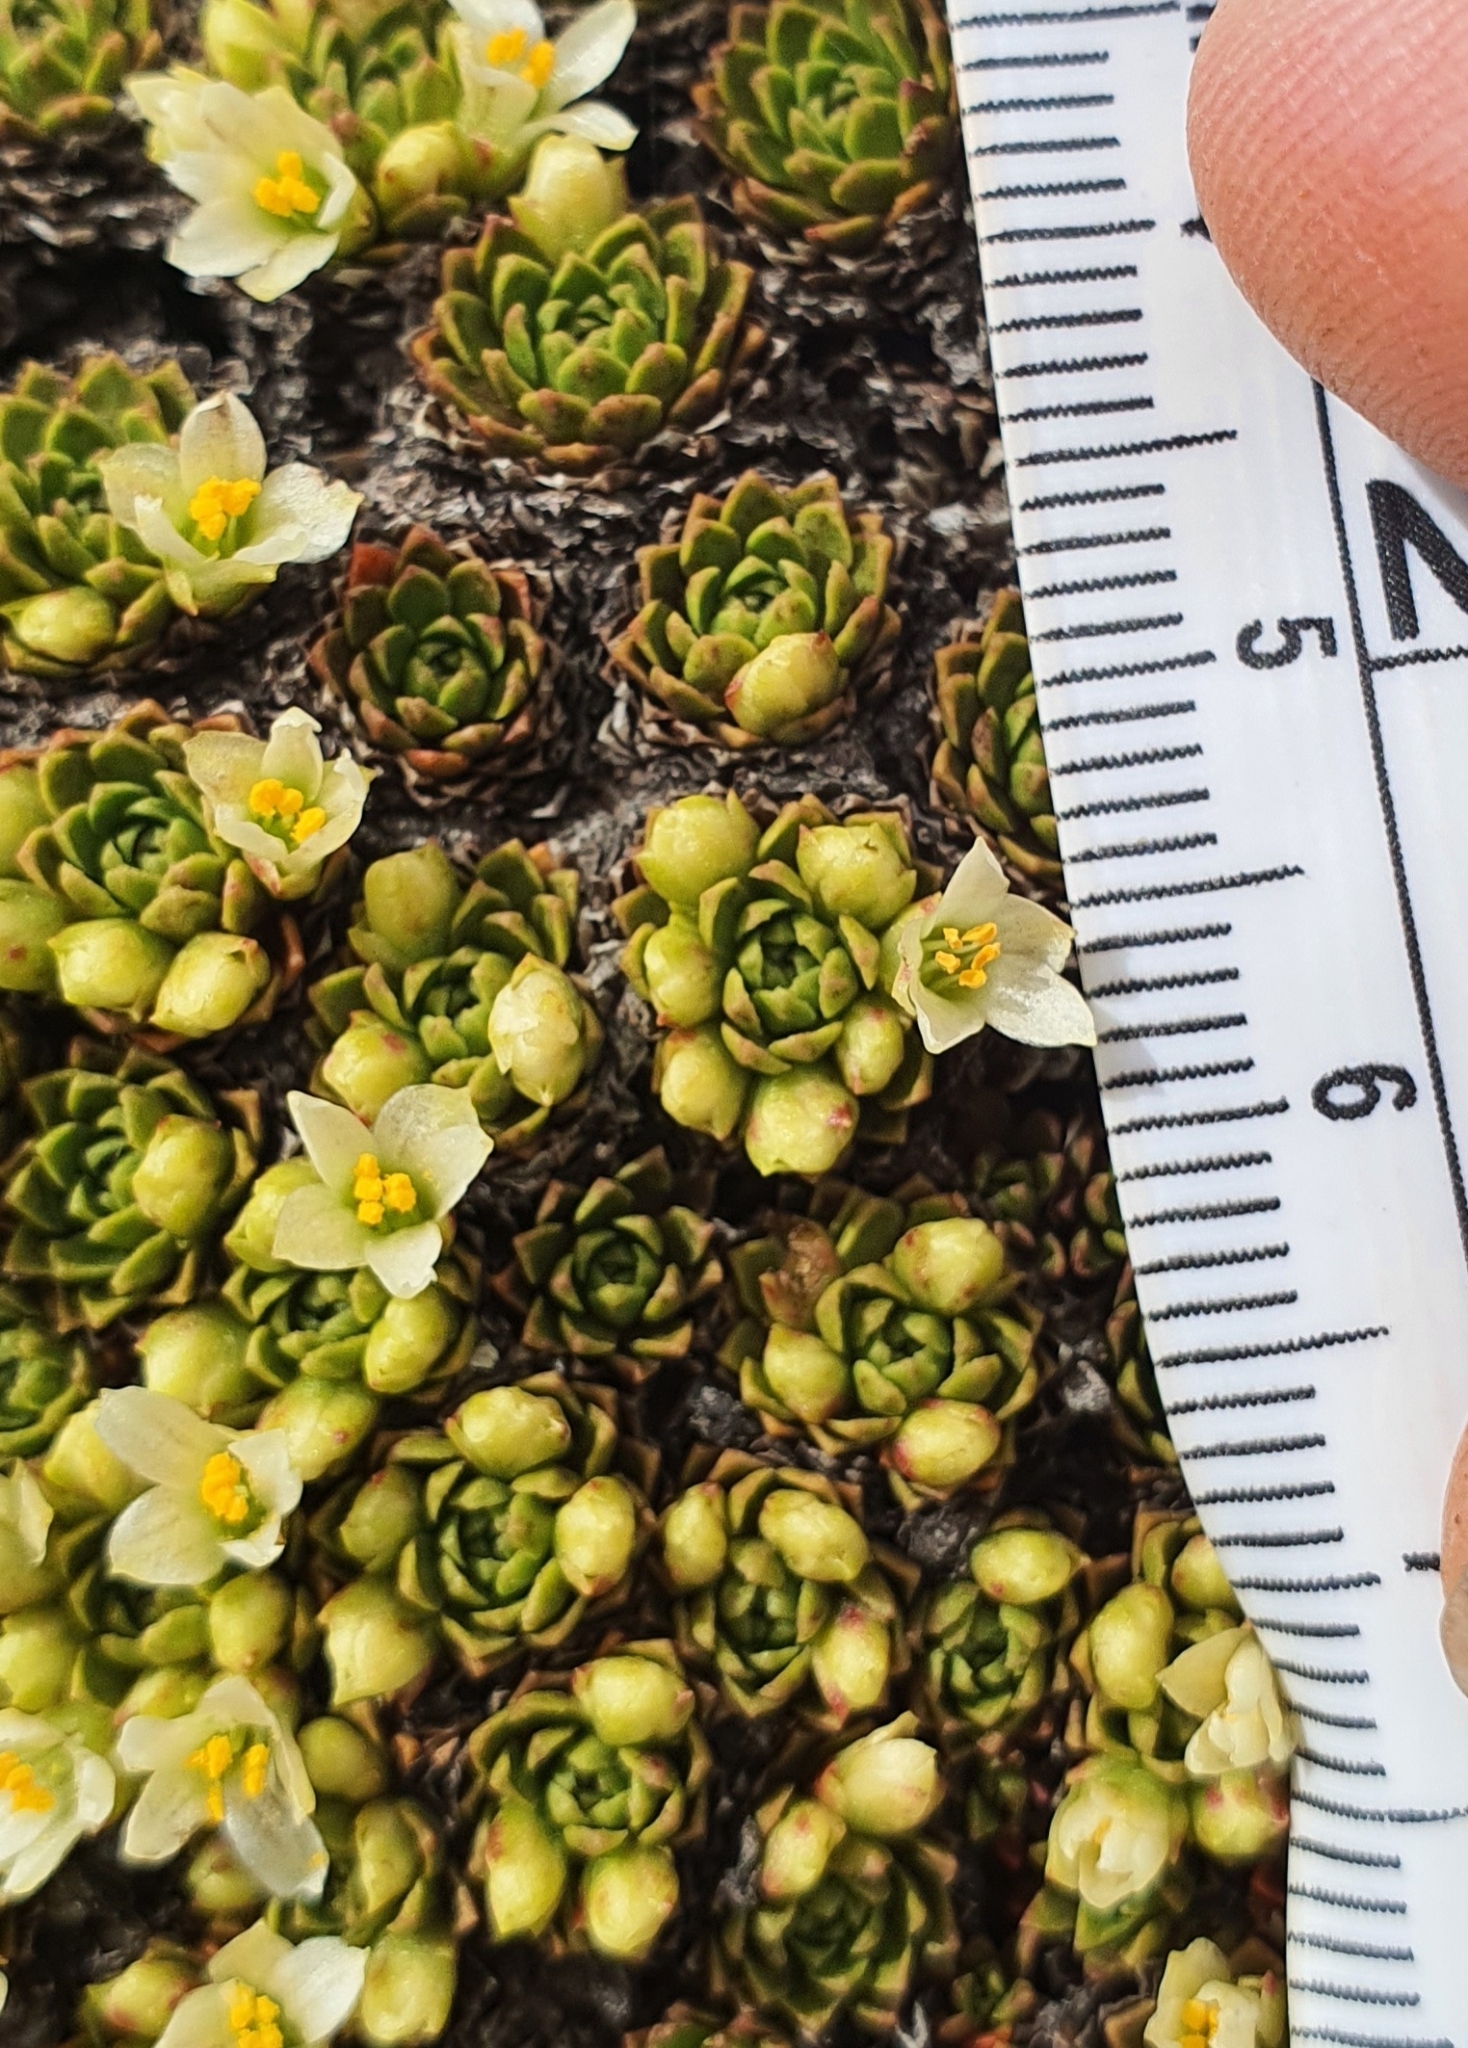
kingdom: Plantae
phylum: Tracheophyta
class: Magnoliopsida
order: Caryophyllales
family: Montiaceae
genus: Hectorella
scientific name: Hectorella caespitosa
